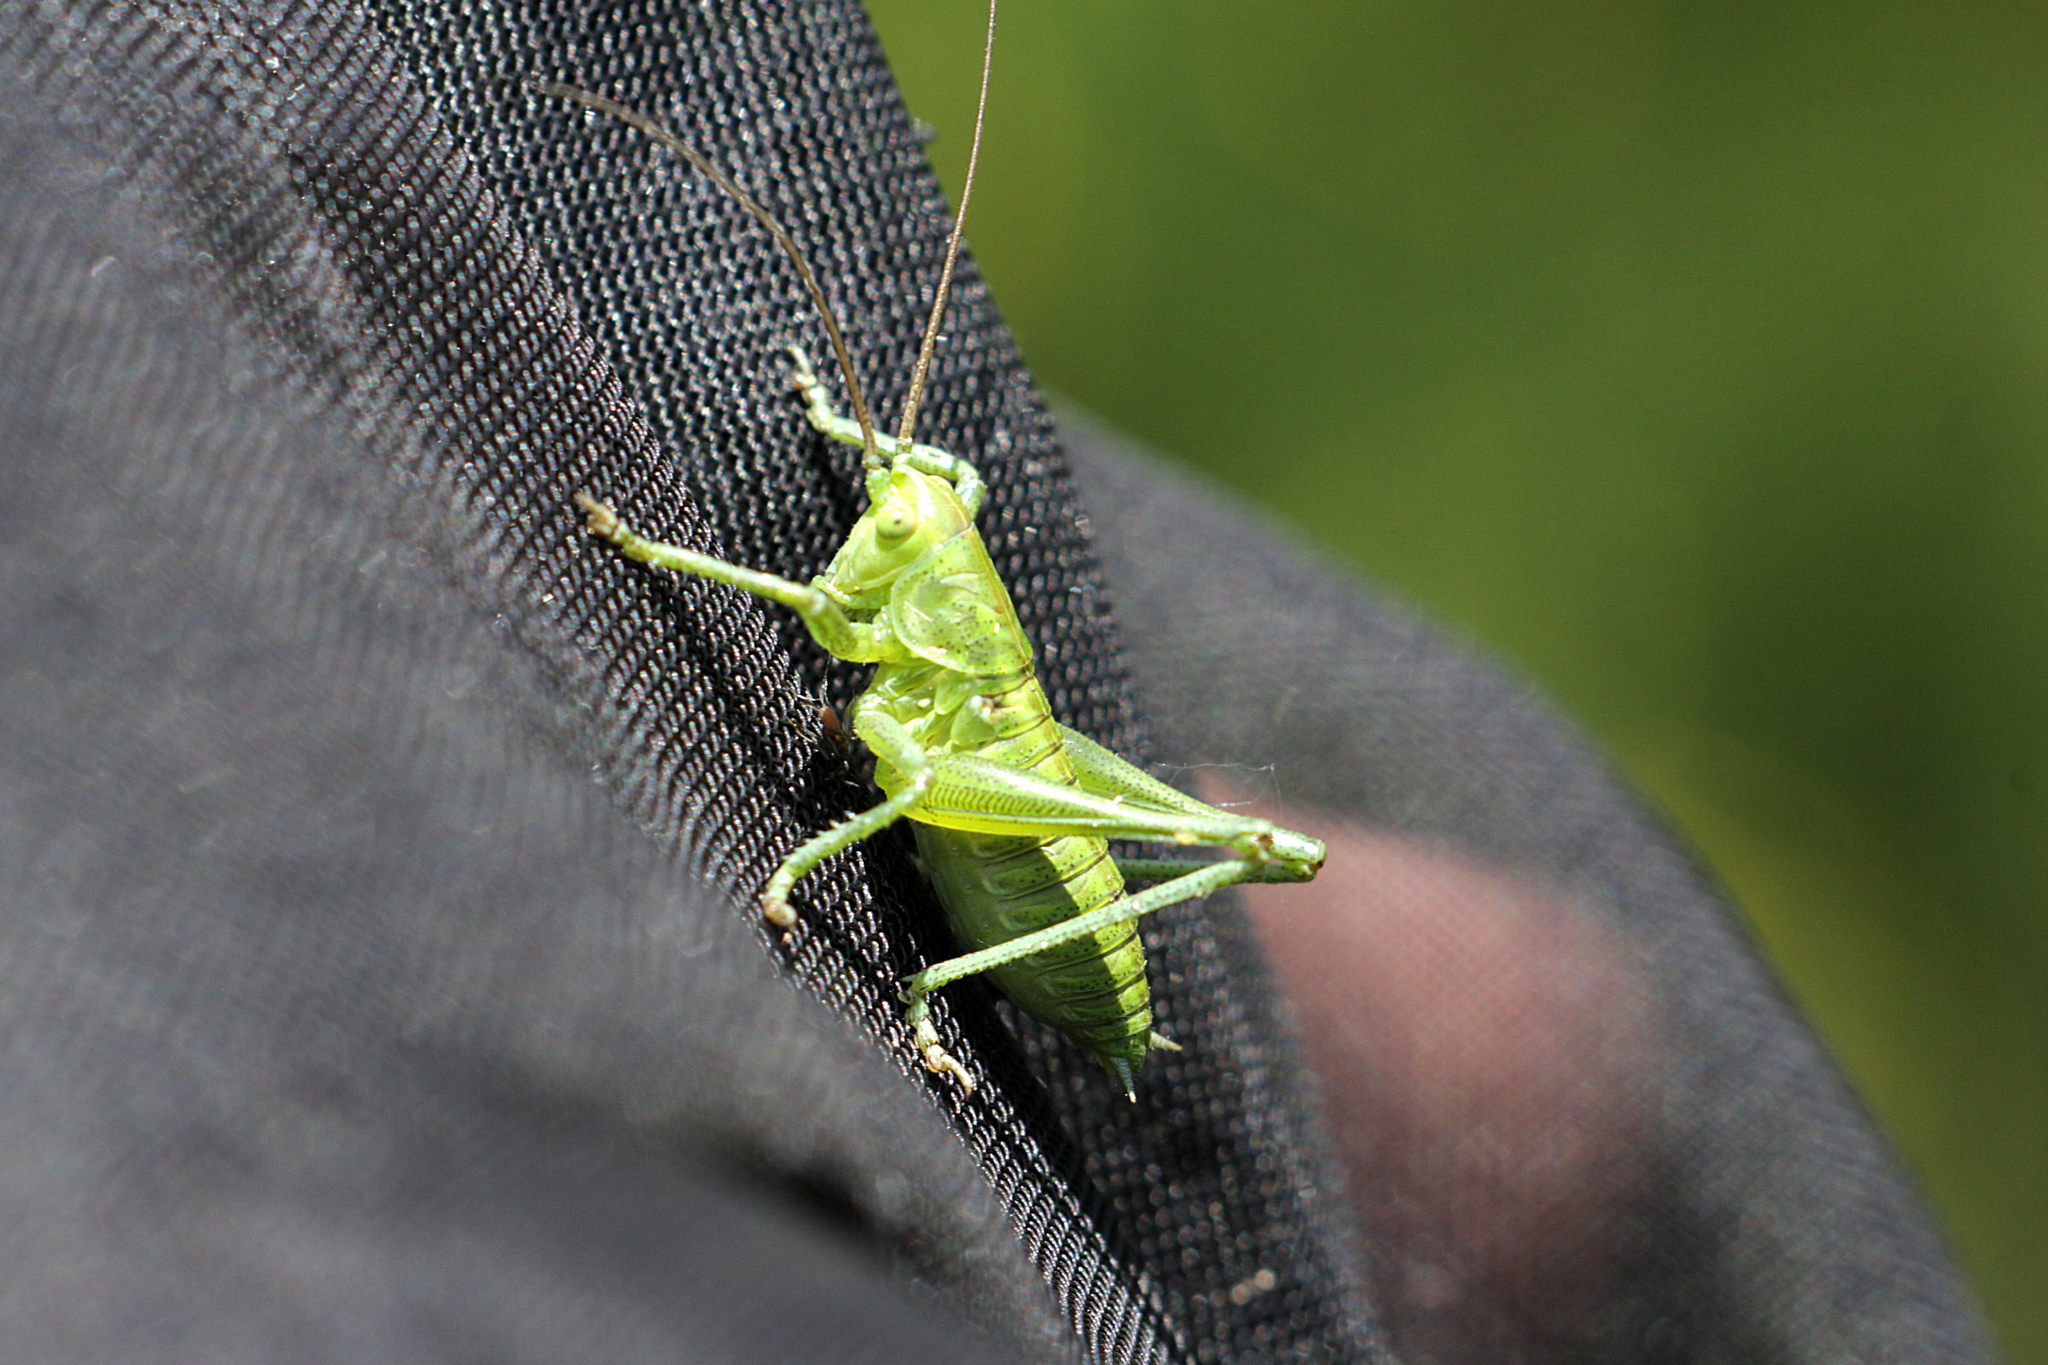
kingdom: Animalia
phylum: Arthropoda
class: Insecta
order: Orthoptera
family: Tettigoniidae
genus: Tettigonia
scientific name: Tettigonia viridissima
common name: Great green bush-cricket
